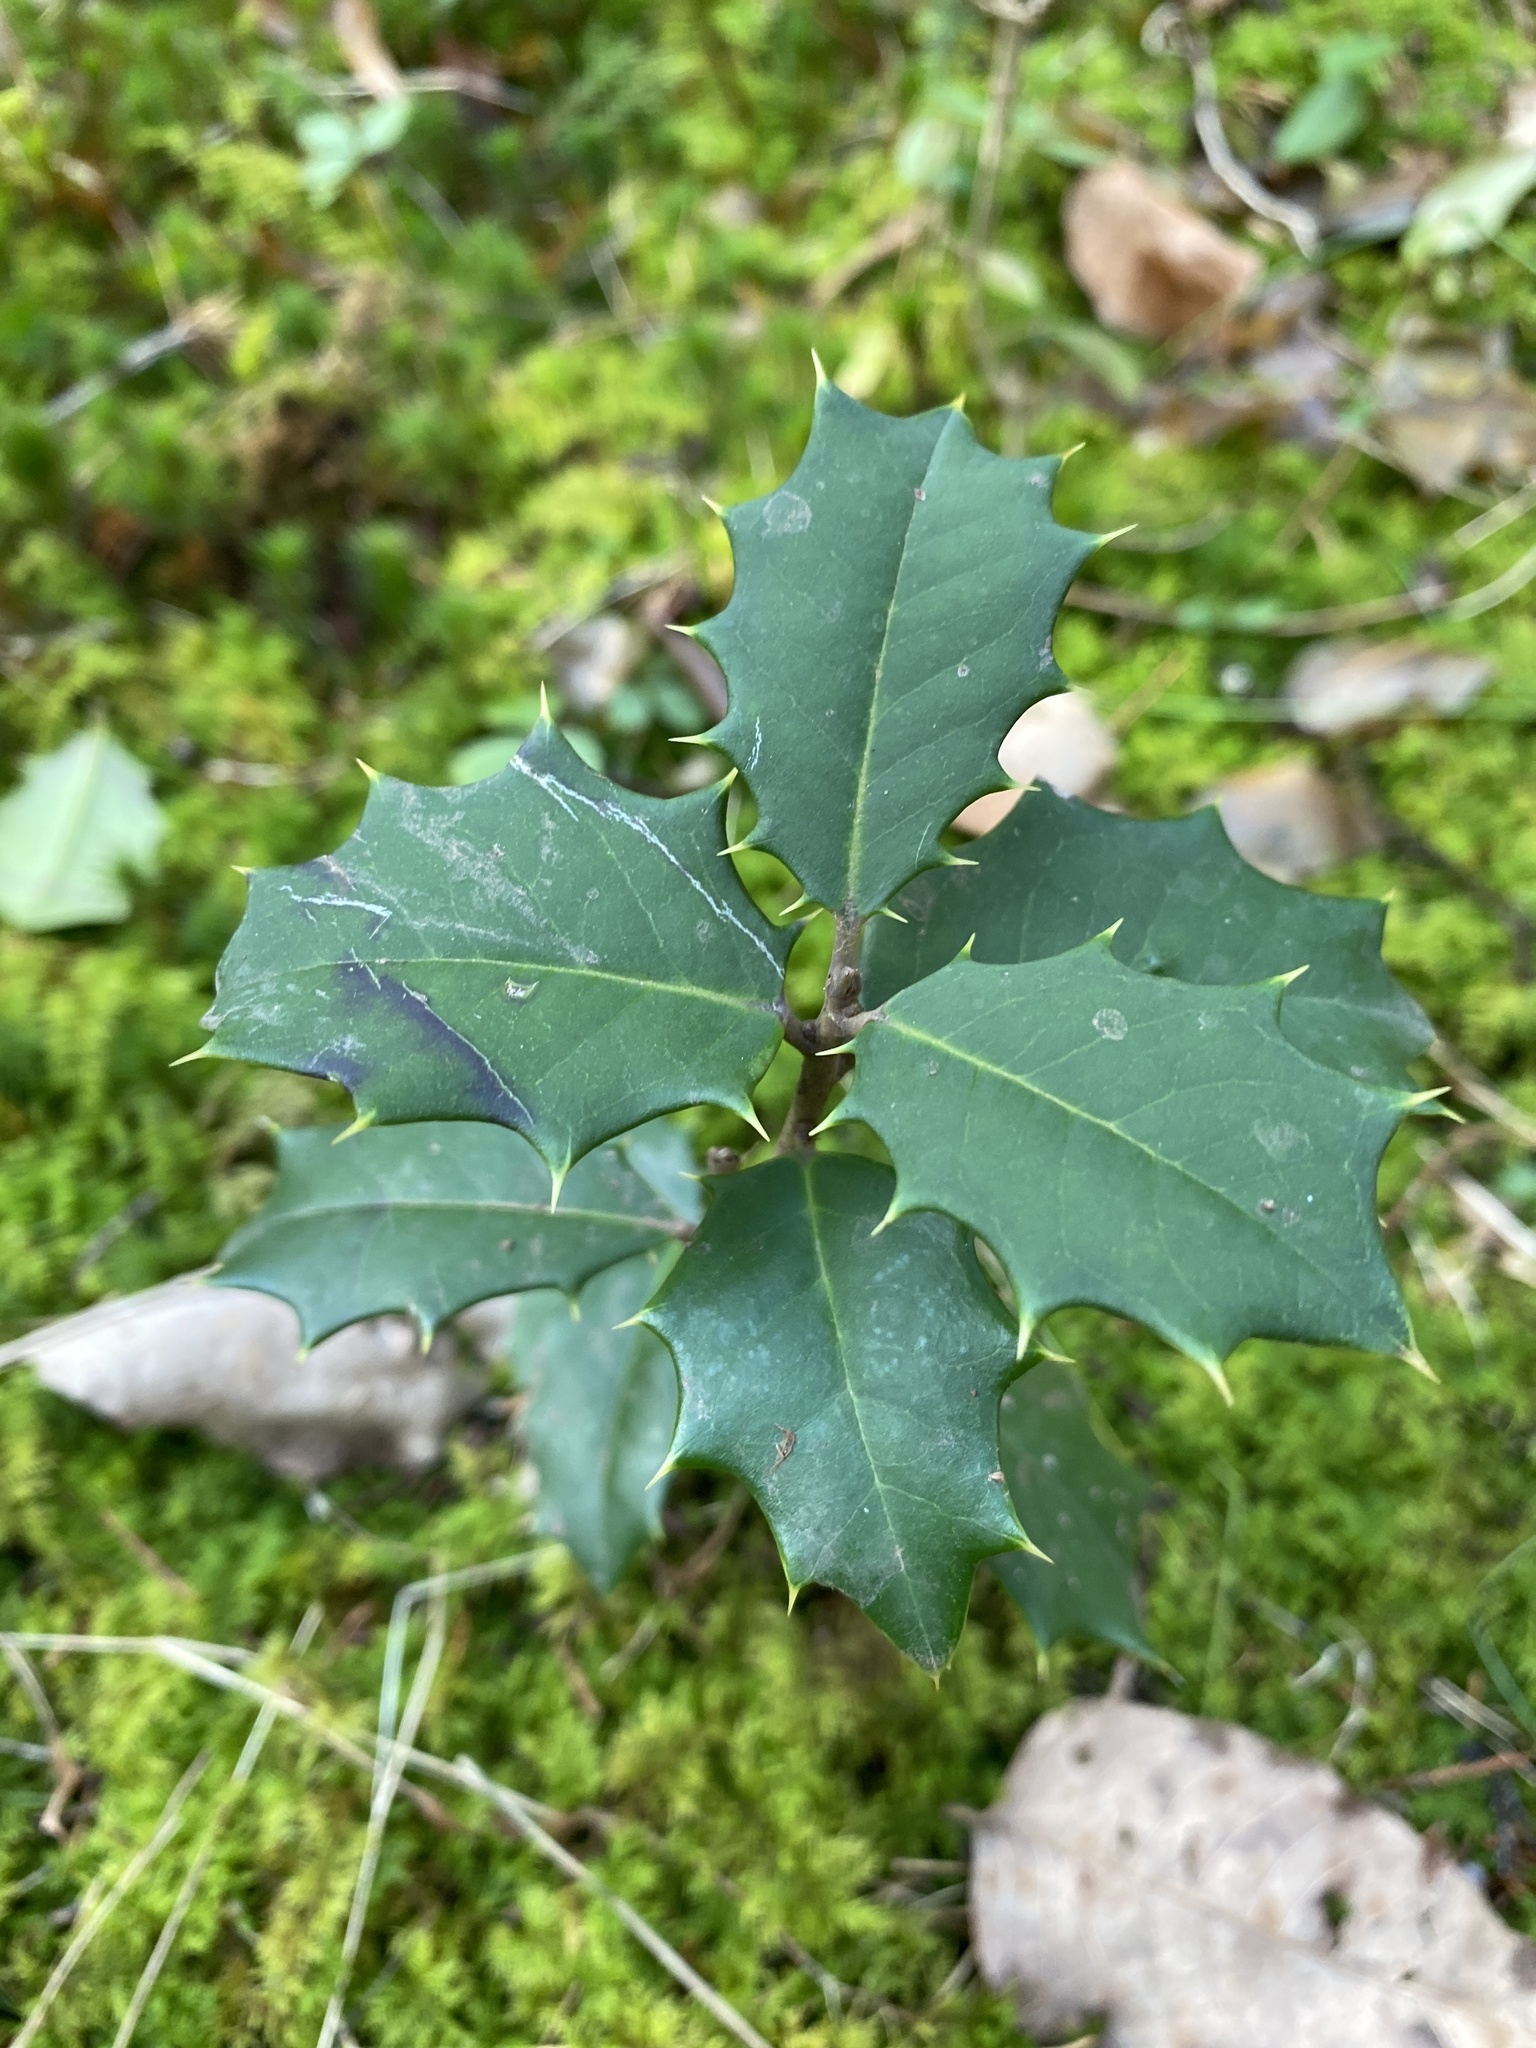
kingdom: Plantae
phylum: Tracheophyta
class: Magnoliopsida
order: Aquifoliales
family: Aquifoliaceae
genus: Ilex
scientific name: Ilex opaca
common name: American holly
